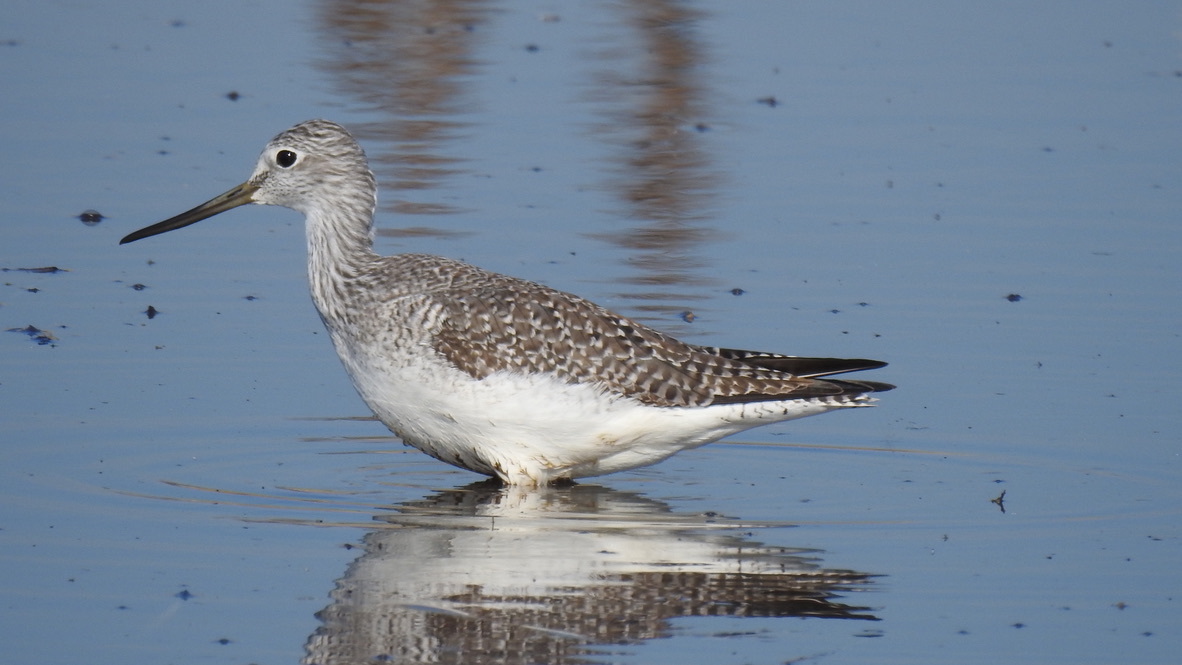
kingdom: Animalia
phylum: Chordata
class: Aves
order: Charadriiformes
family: Scolopacidae
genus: Tringa
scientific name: Tringa melanoleuca
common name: Greater yellowlegs
